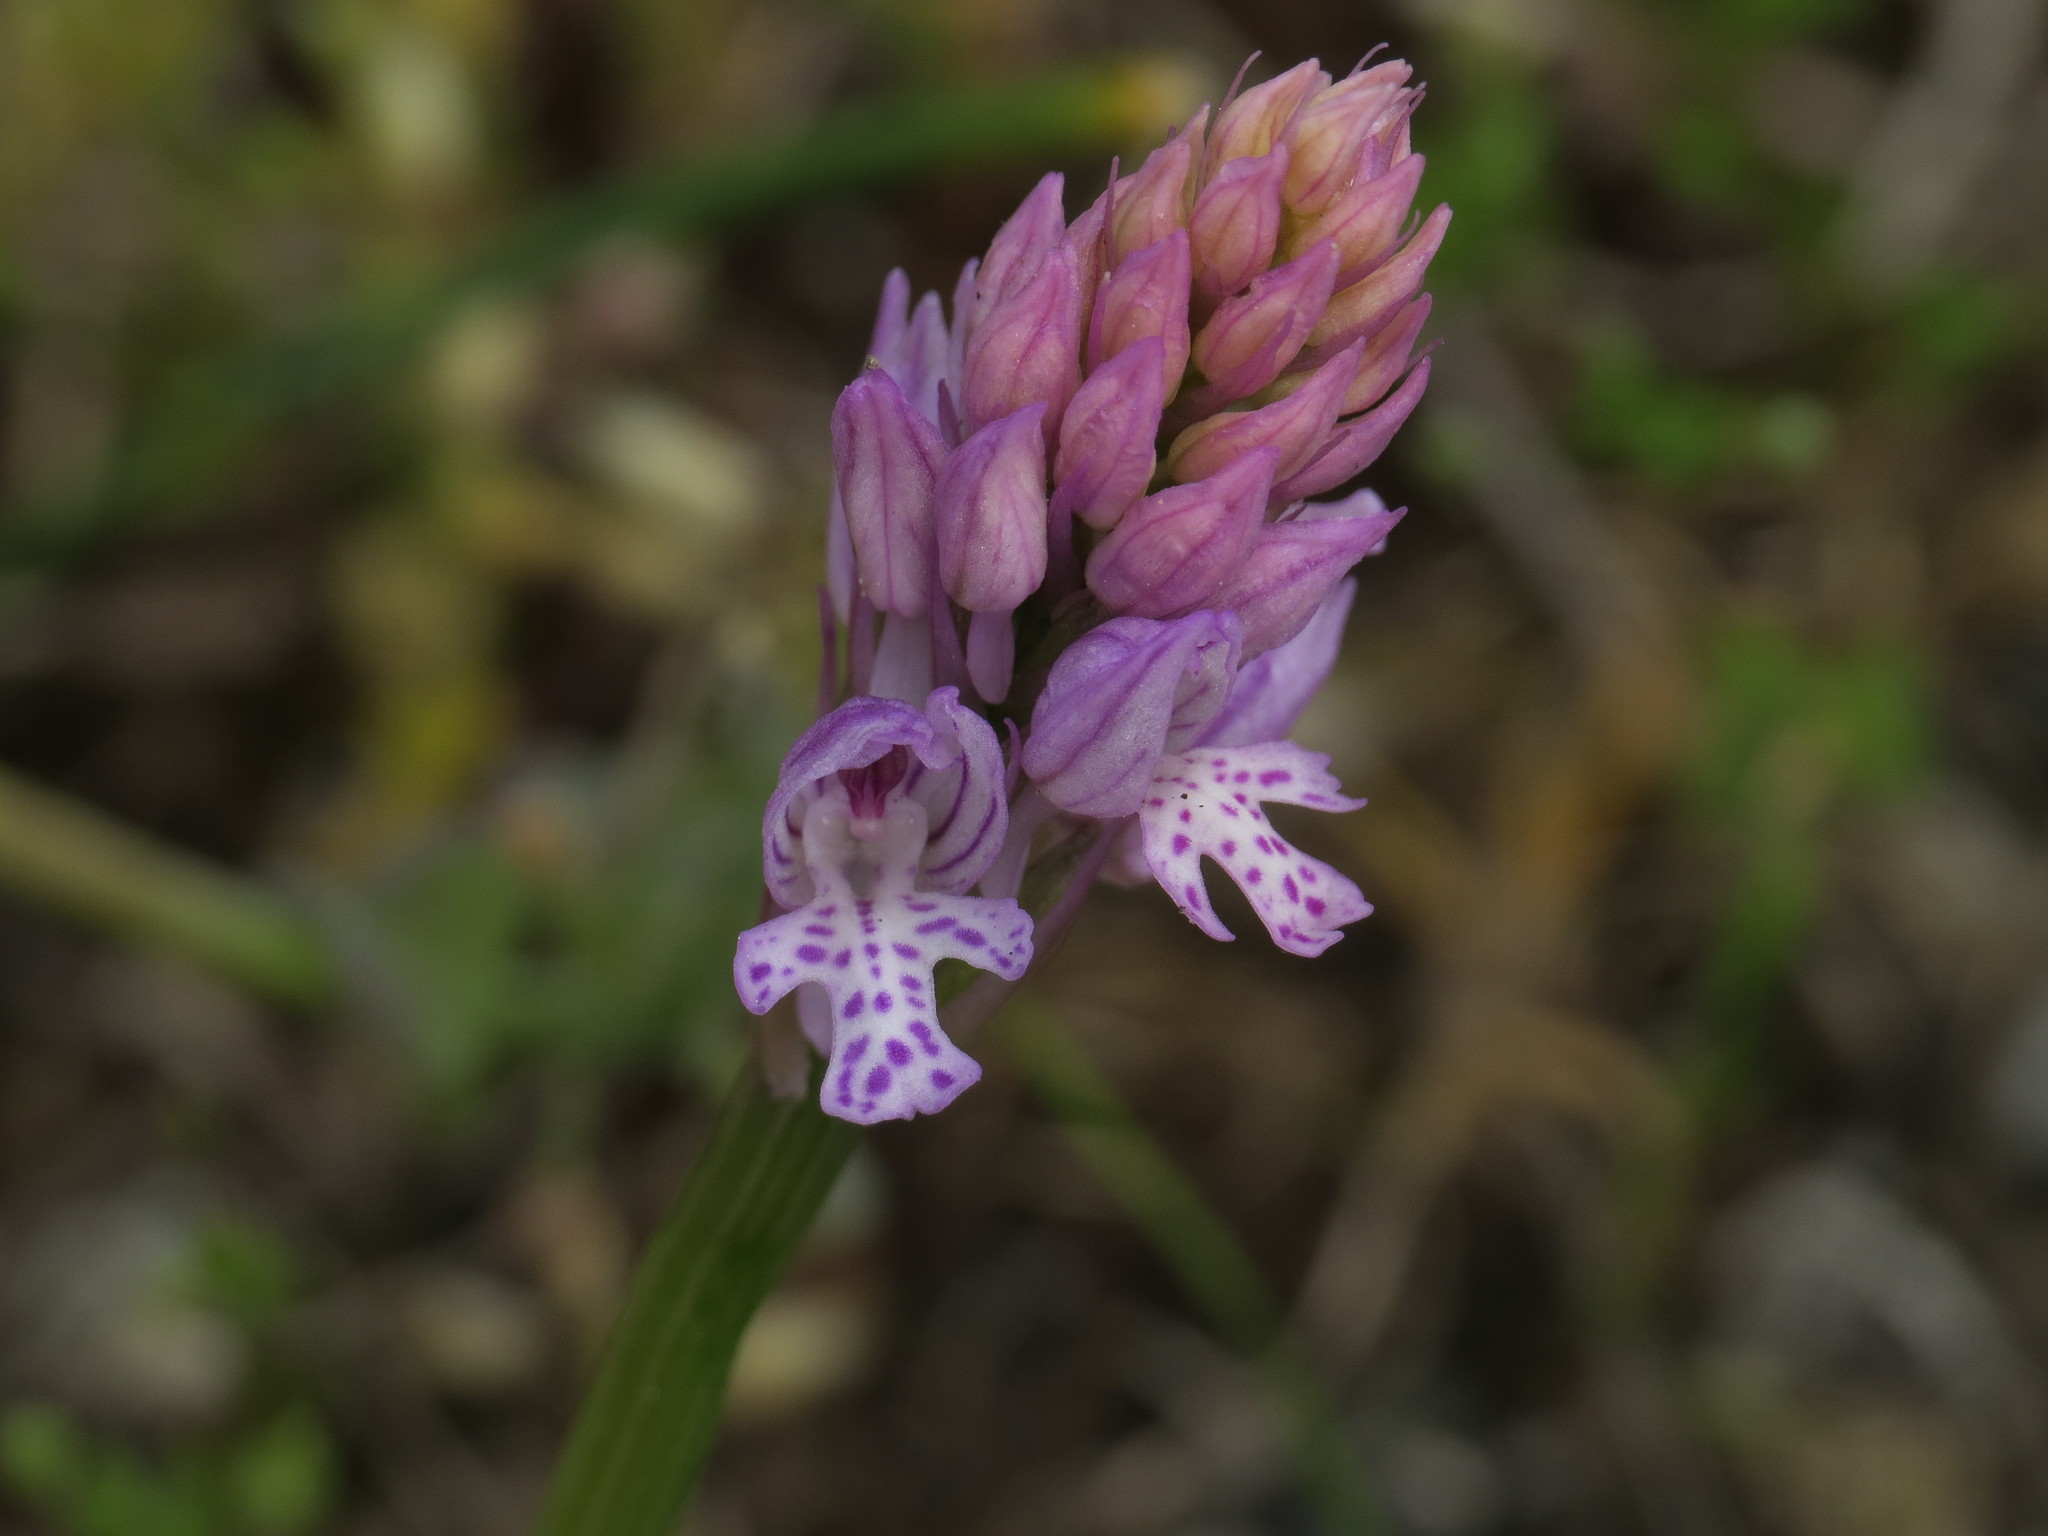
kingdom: Plantae
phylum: Tracheophyta
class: Liliopsida
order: Asparagales
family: Orchidaceae
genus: Neotinea
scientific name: Neotinea tridentata
